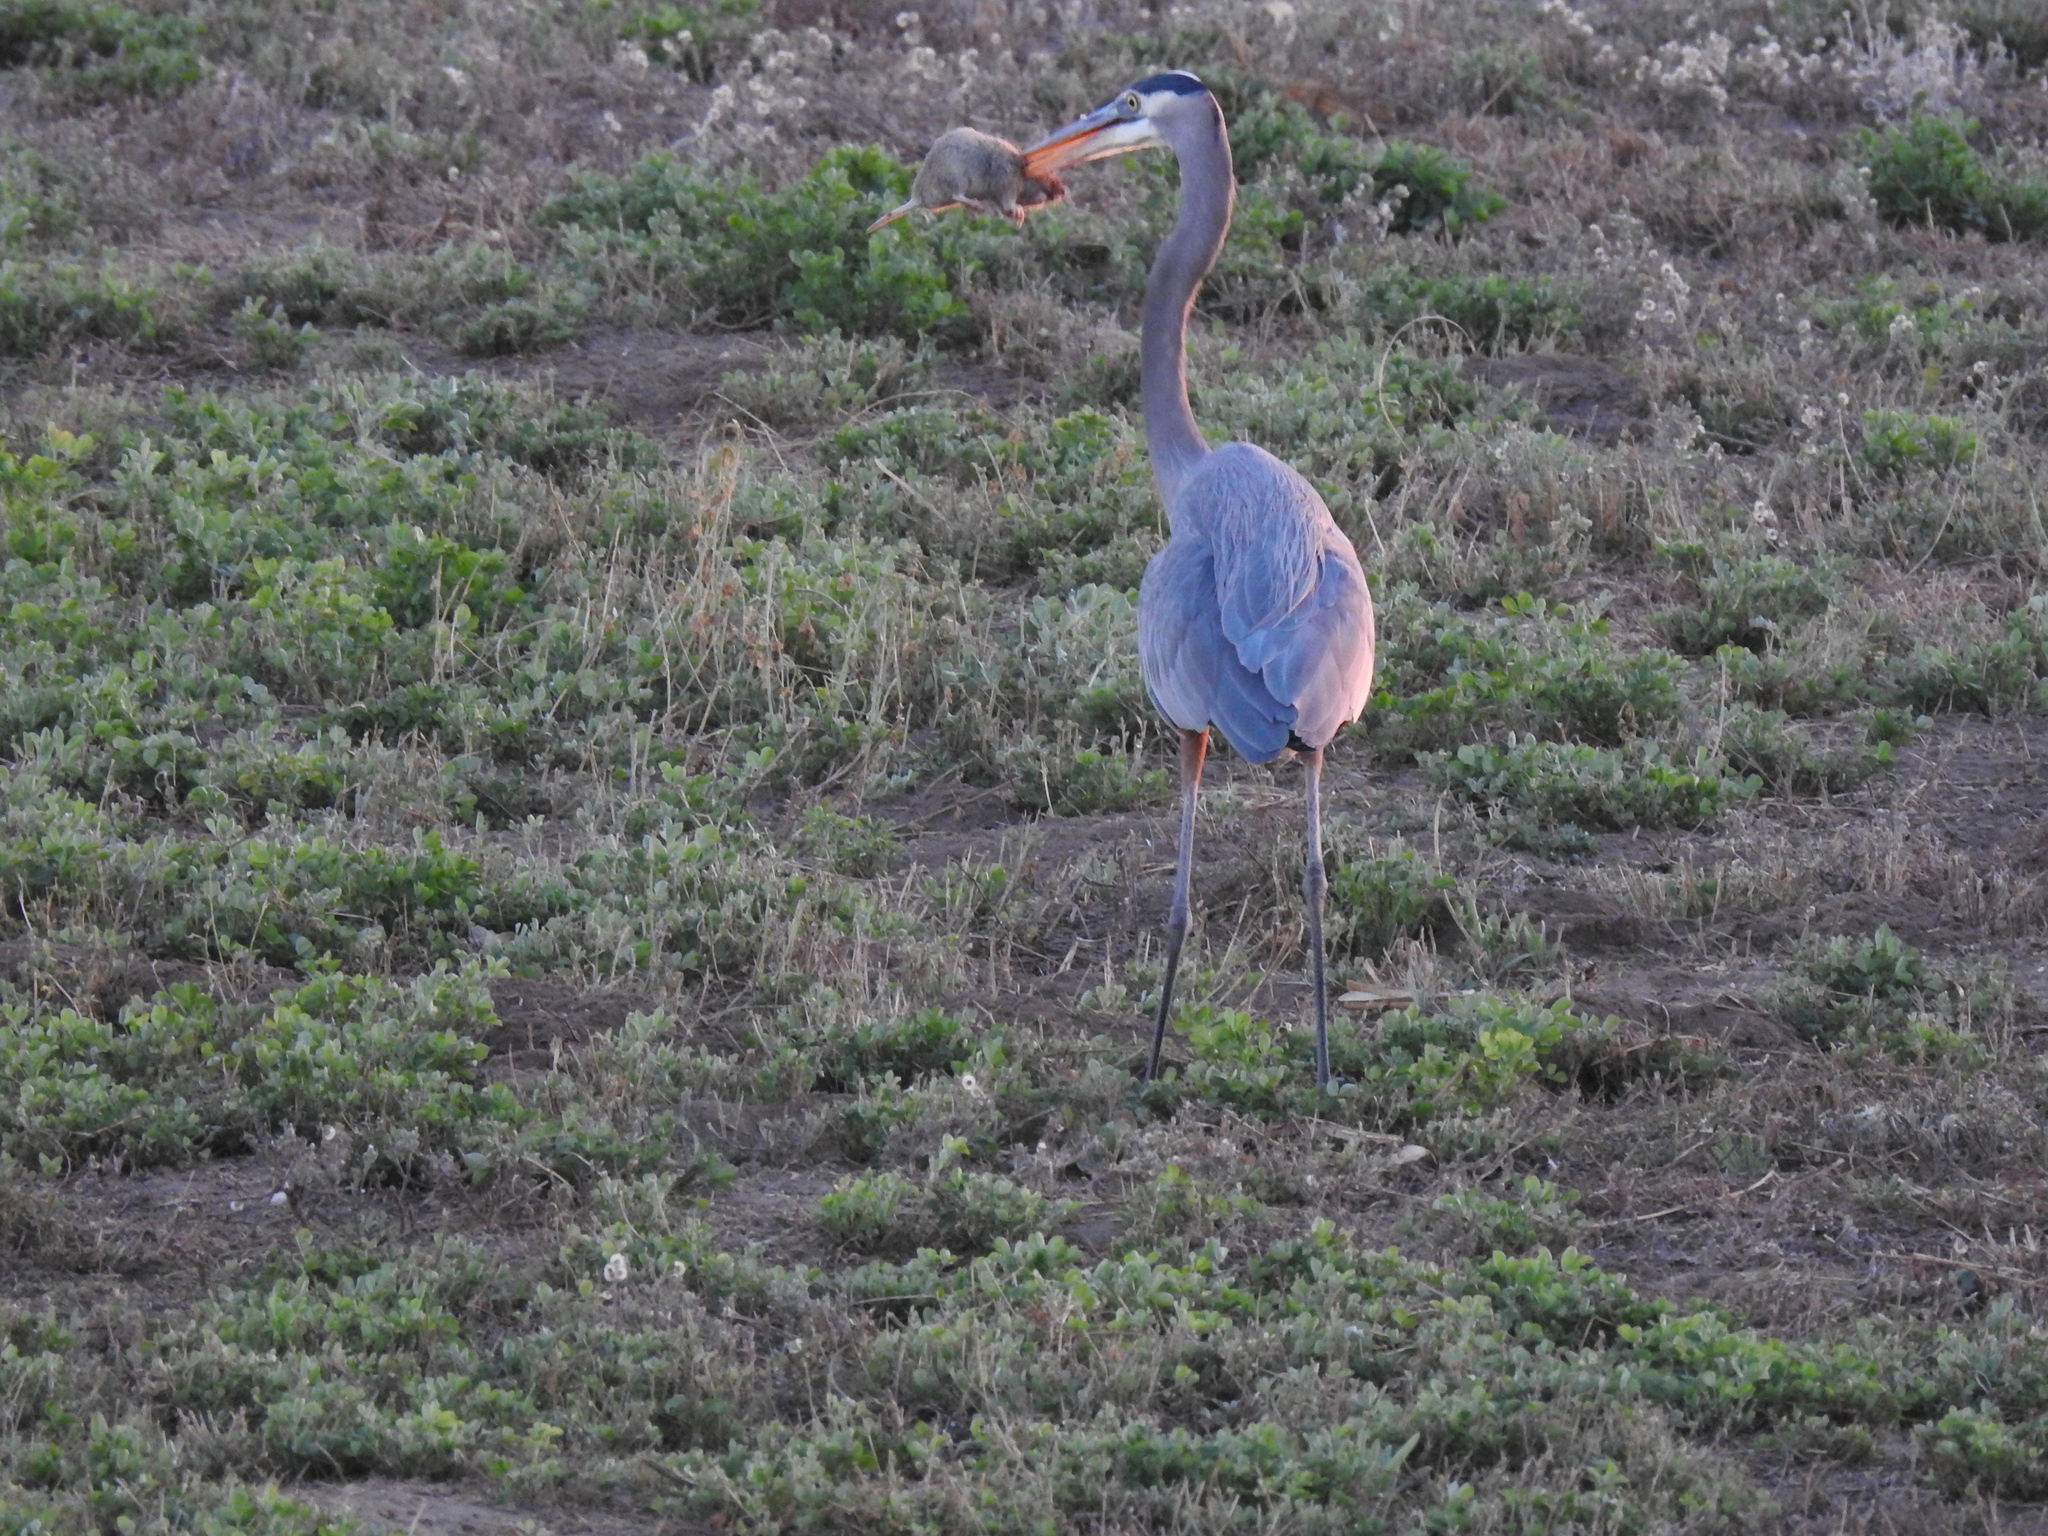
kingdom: Animalia
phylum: Chordata
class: Aves
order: Pelecaniformes
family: Ardeidae
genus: Ardea
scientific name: Ardea herodias
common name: Great blue heron
